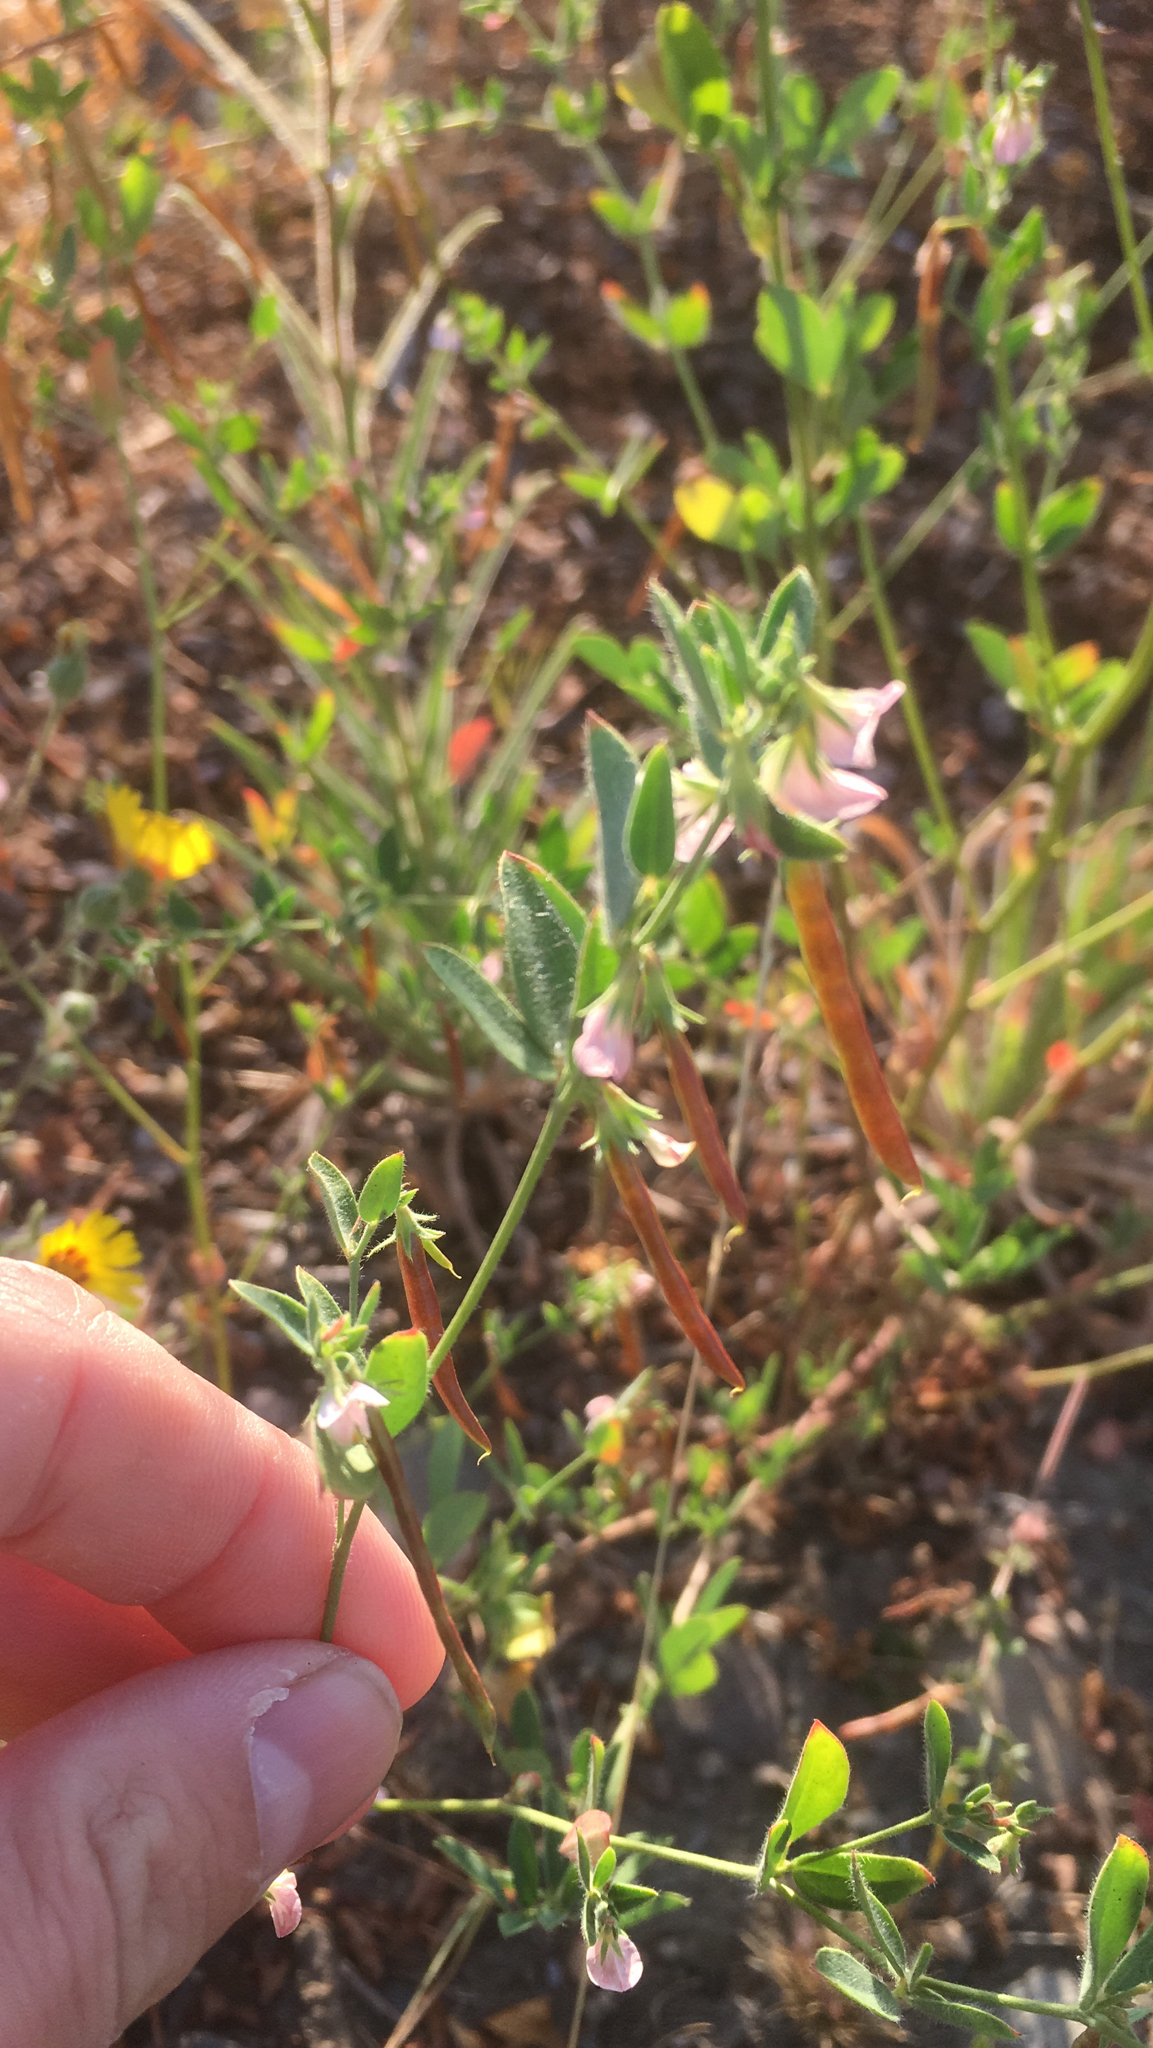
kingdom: Plantae
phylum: Tracheophyta
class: Magnoliopsida
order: Fabales
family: Fabaceae
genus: Acmispon
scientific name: Acmispon americanus
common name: American bird's-foot trefoil
